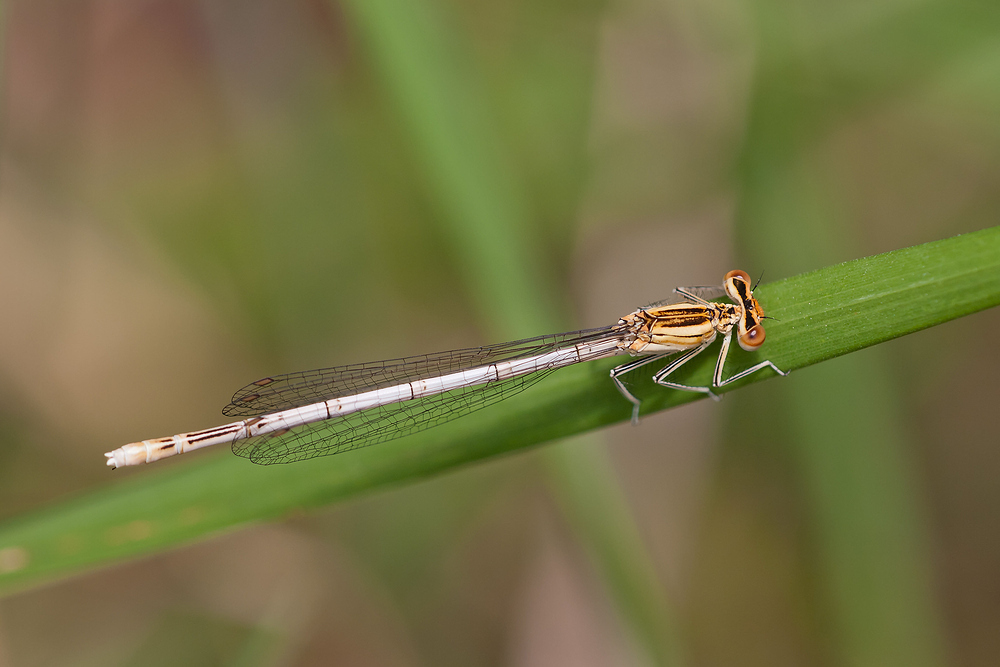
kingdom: Animalia
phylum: Arthropoda
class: Insecta
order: Odonata
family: Platycnemididae
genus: Platycnemis
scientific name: Platycnemis pennipes
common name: White-legged damselfly
